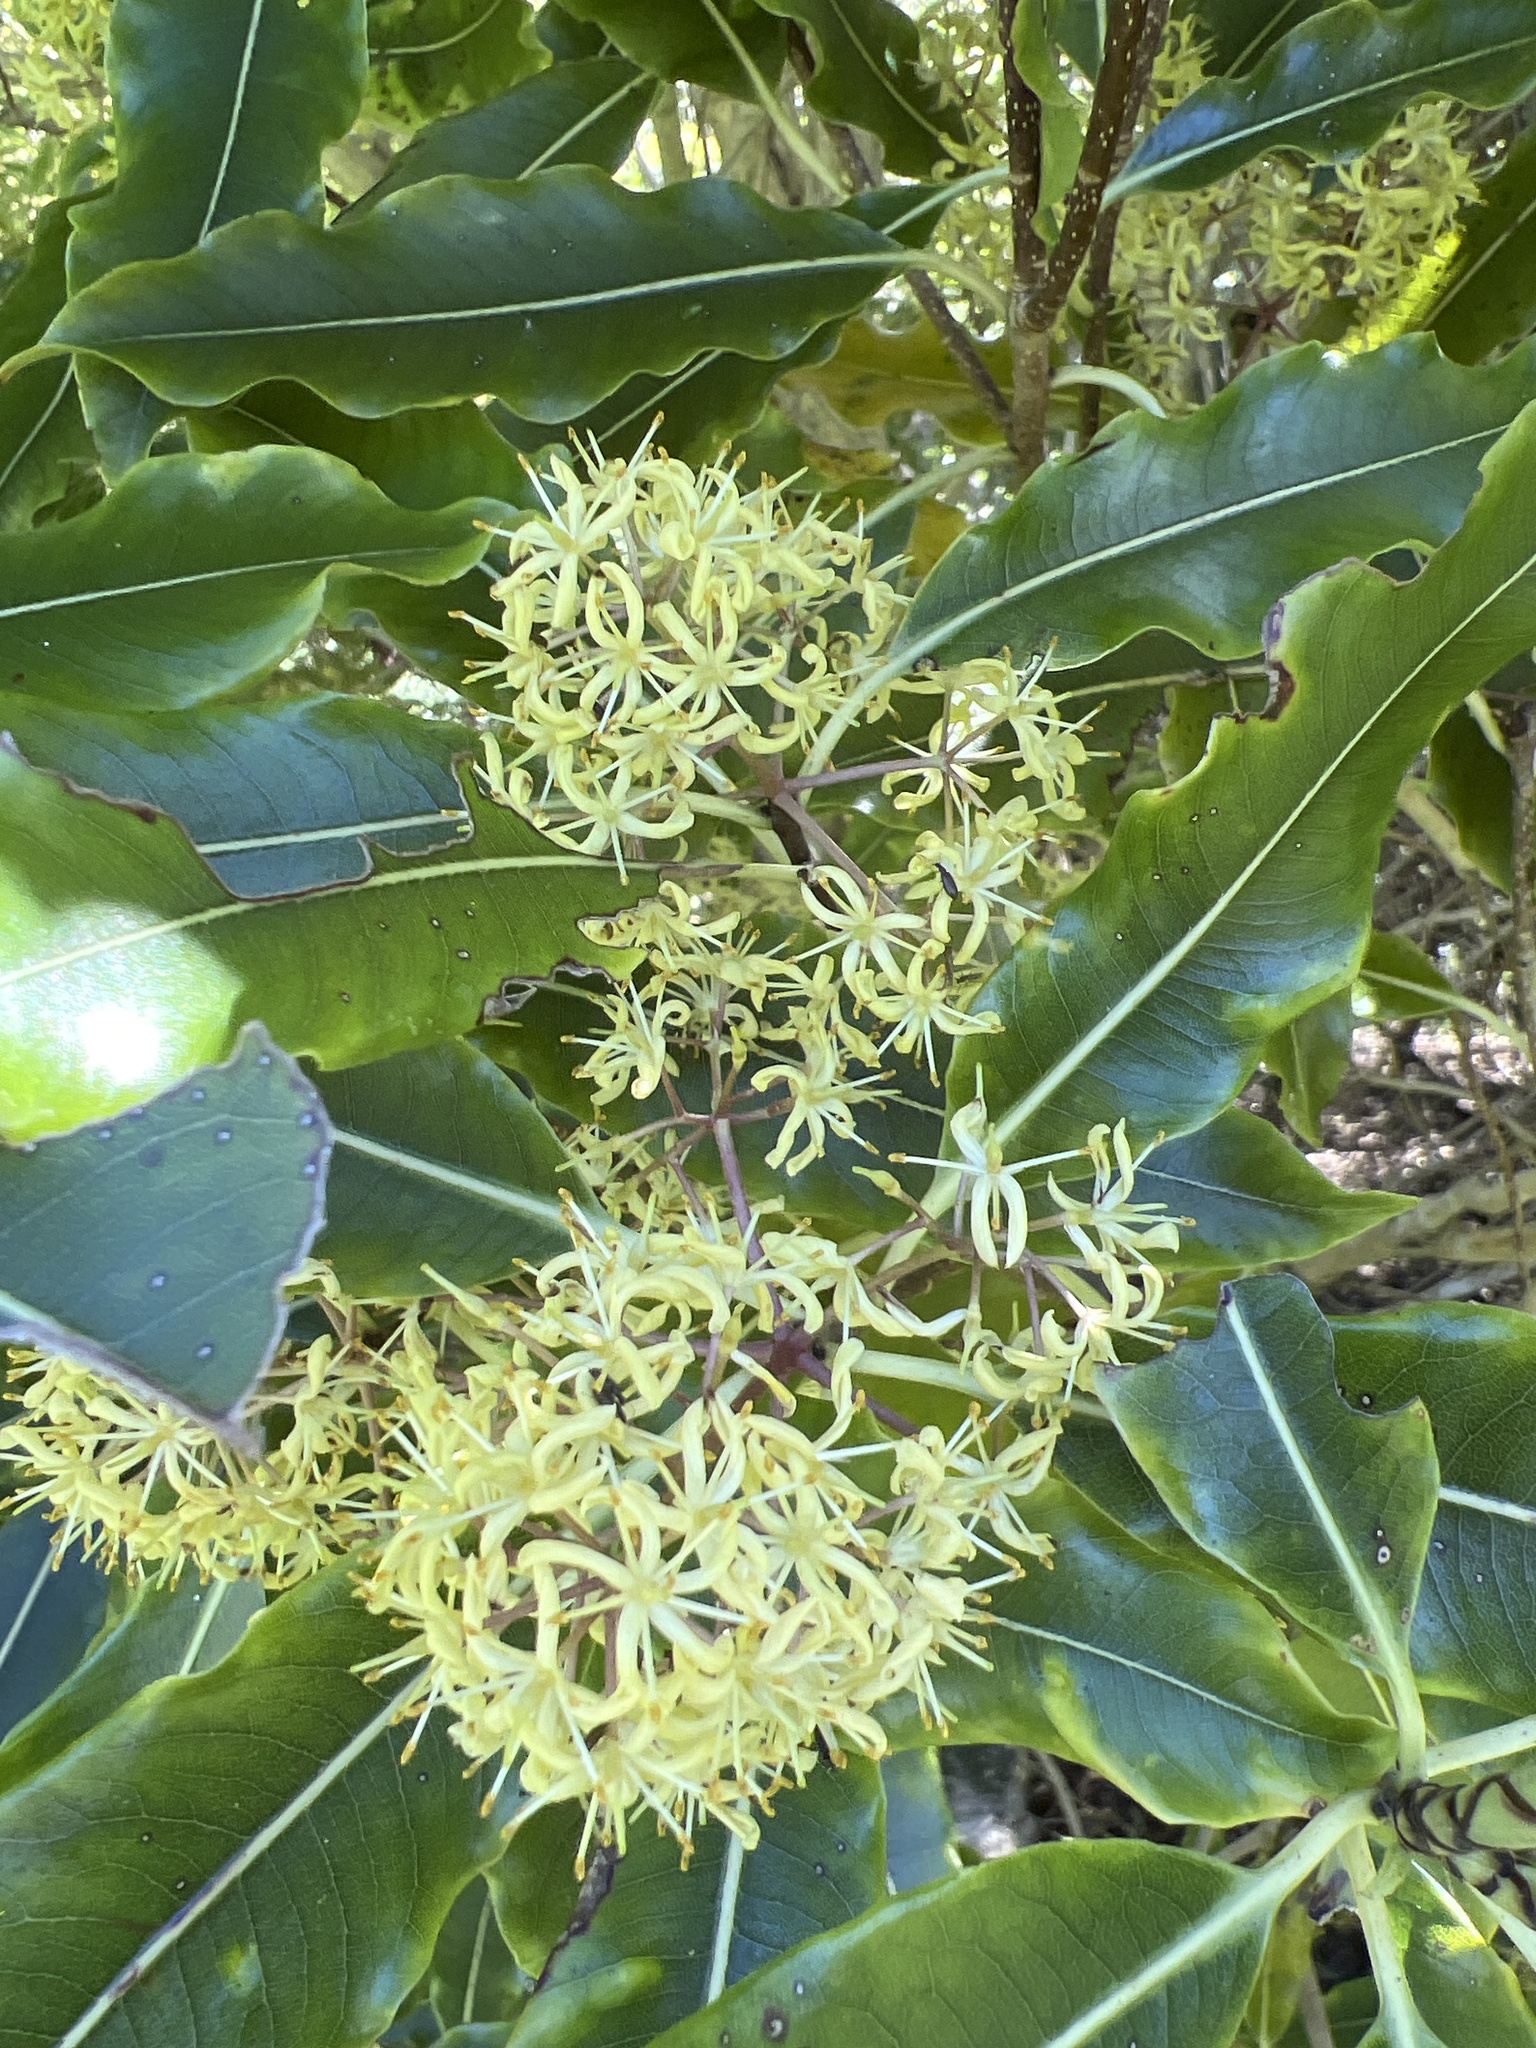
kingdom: Plantae
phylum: Tracheophyta
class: Magnoliopsida
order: Apiales
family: Pittosporaceae
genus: Pittosporum
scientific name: Pittosporum eugenioides
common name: Lemonwood
